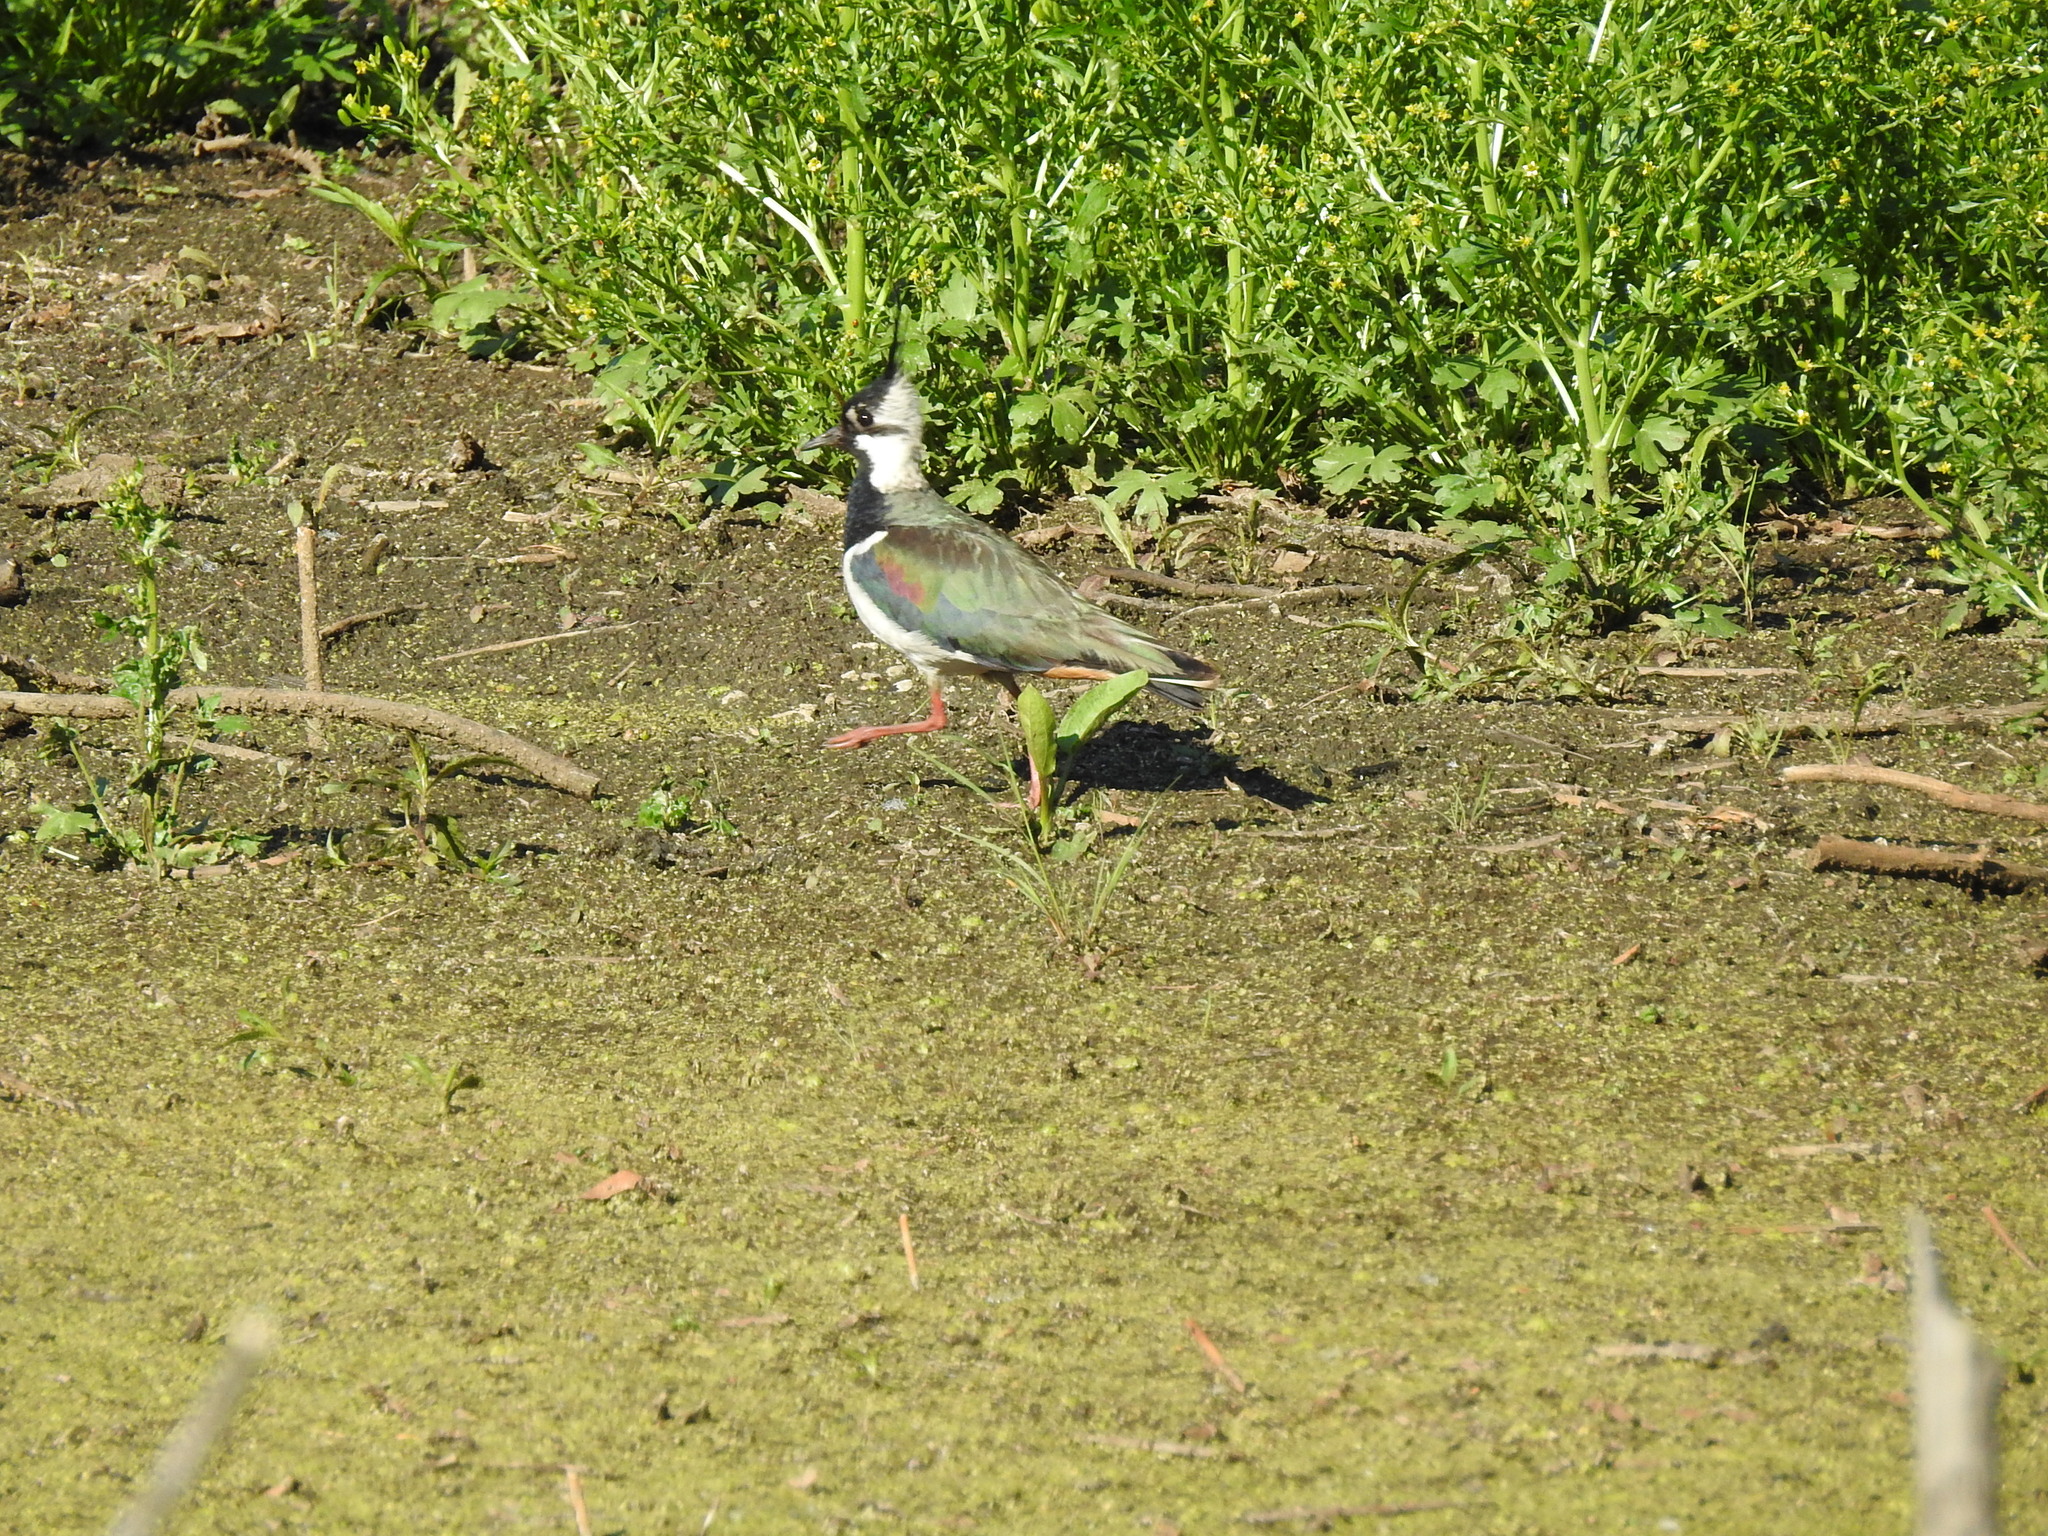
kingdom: Animalia
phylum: Chordata
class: Aves
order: Charadriiformes
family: Charadriidae
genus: Vanellus
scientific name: Vanellus vanellus
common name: Northern lapwing
